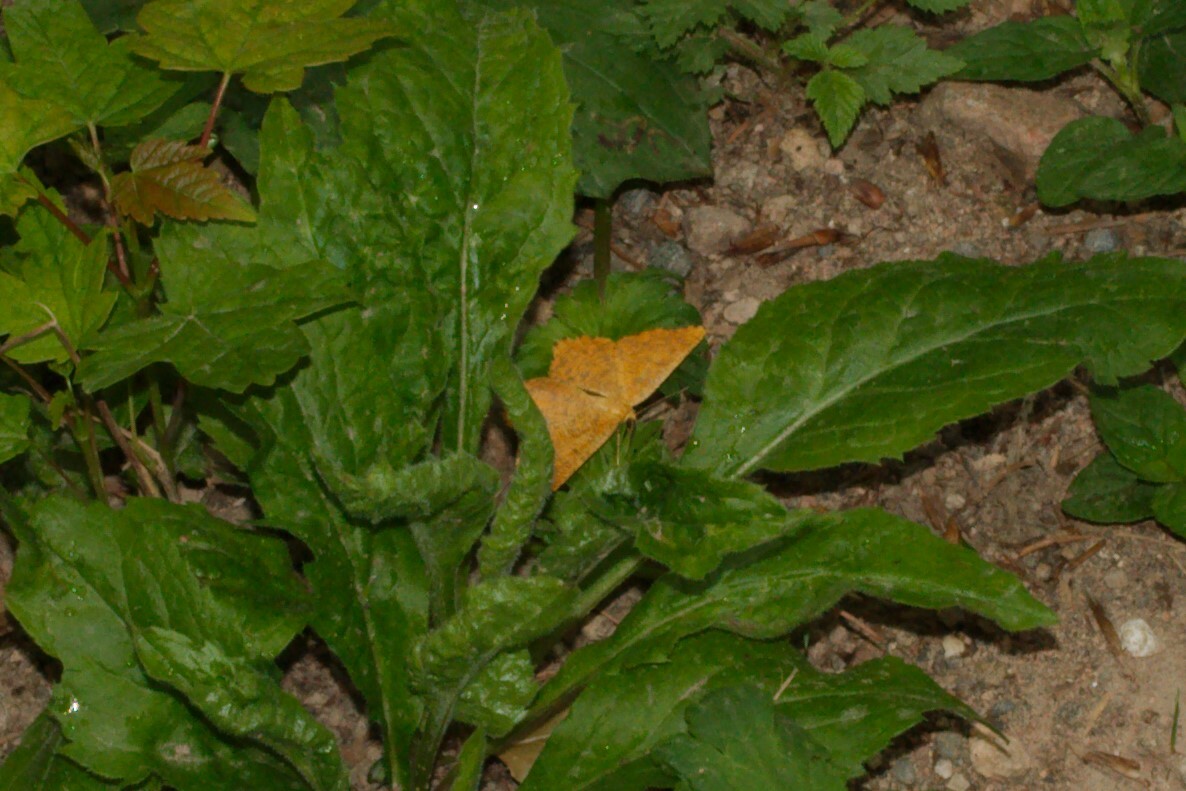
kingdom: Animalia
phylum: Arthropoda
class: Insecta
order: Lepidoptera
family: Geometridae
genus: Angerona
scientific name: Angerona prunaria
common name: Orange moth
